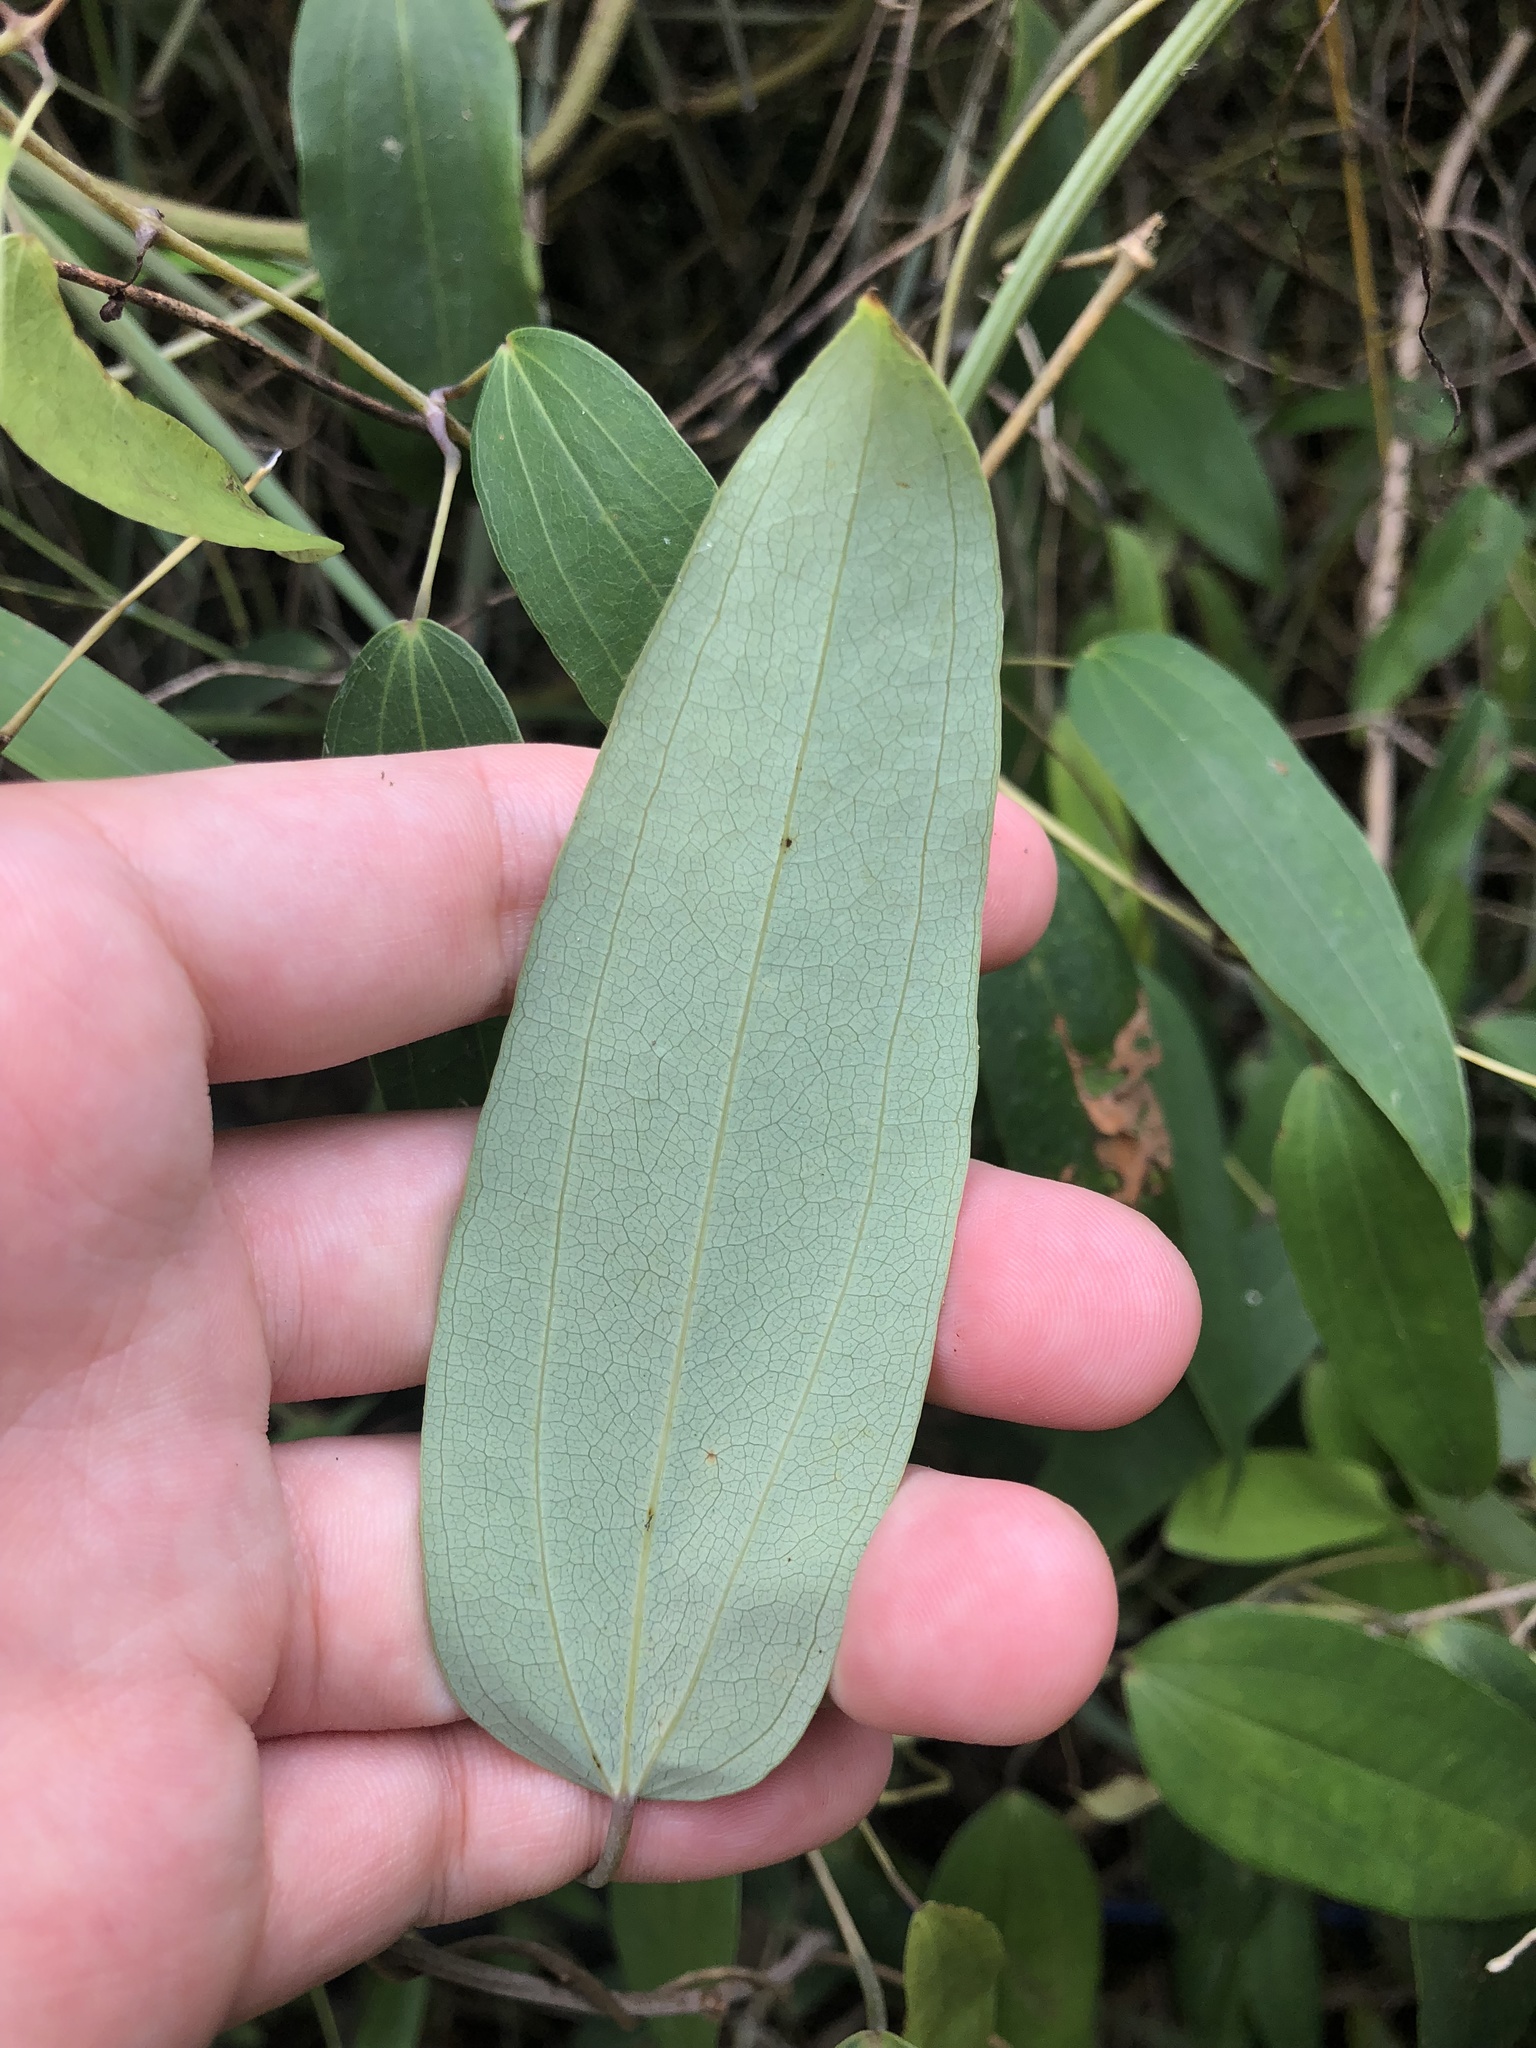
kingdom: Plantae
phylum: Tracheophyta
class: Liliopsida
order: Dioscoreales
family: Dioscoreaceae
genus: Dioscorea
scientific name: Dioscorea cirrhosa
